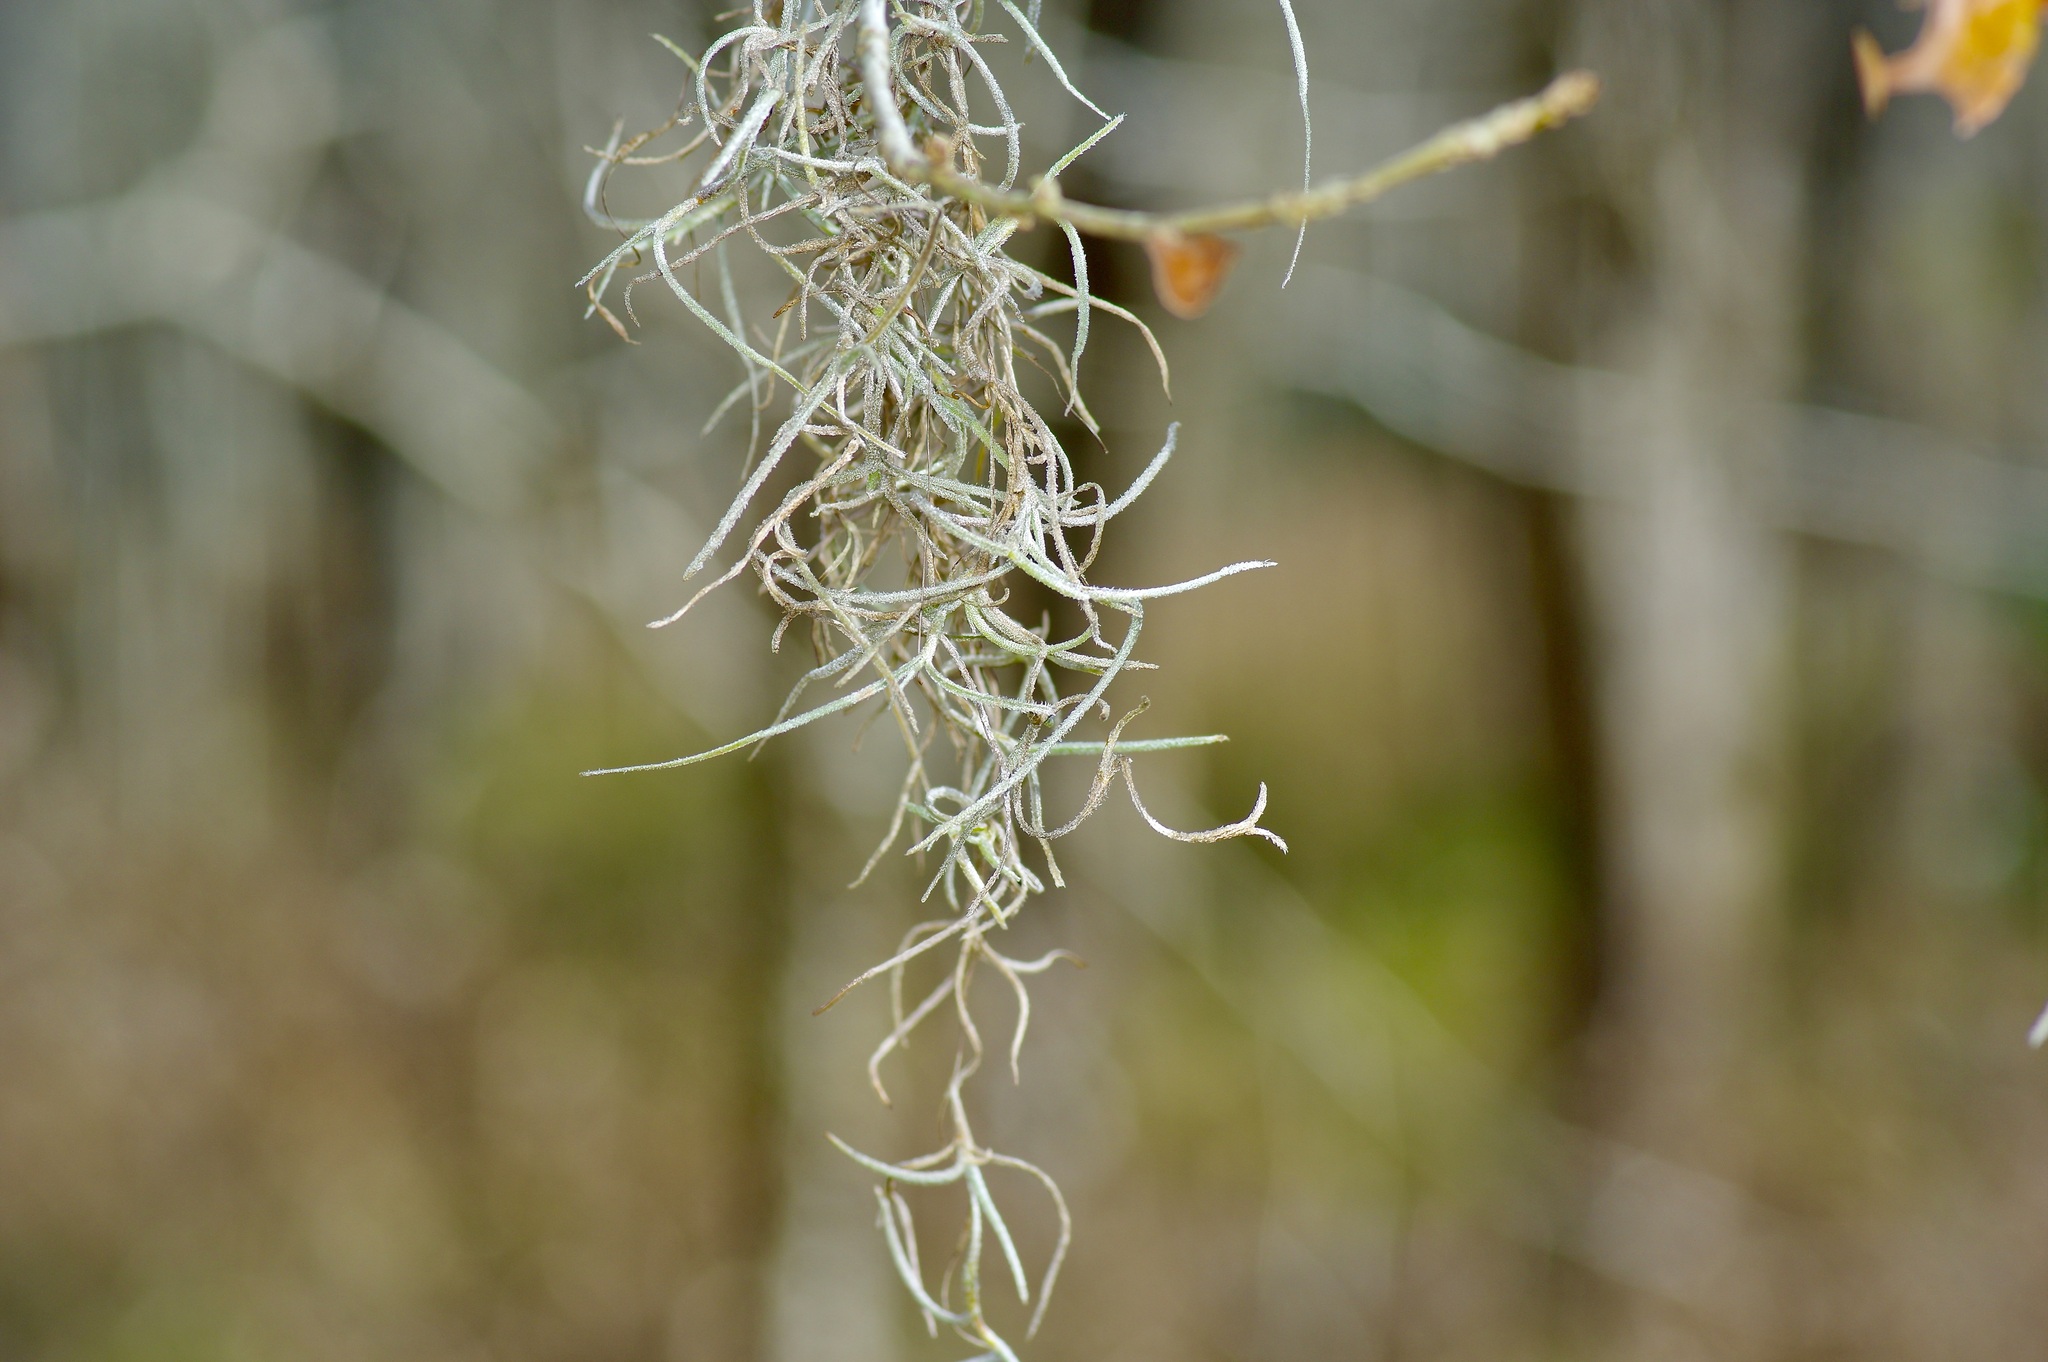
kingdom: Plantae
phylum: Tracheophyta
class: Liliopsida
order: Poales
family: Bromeliaceae
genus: Tillandsia
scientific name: Tillandsia usneoides
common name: Spanish moss
